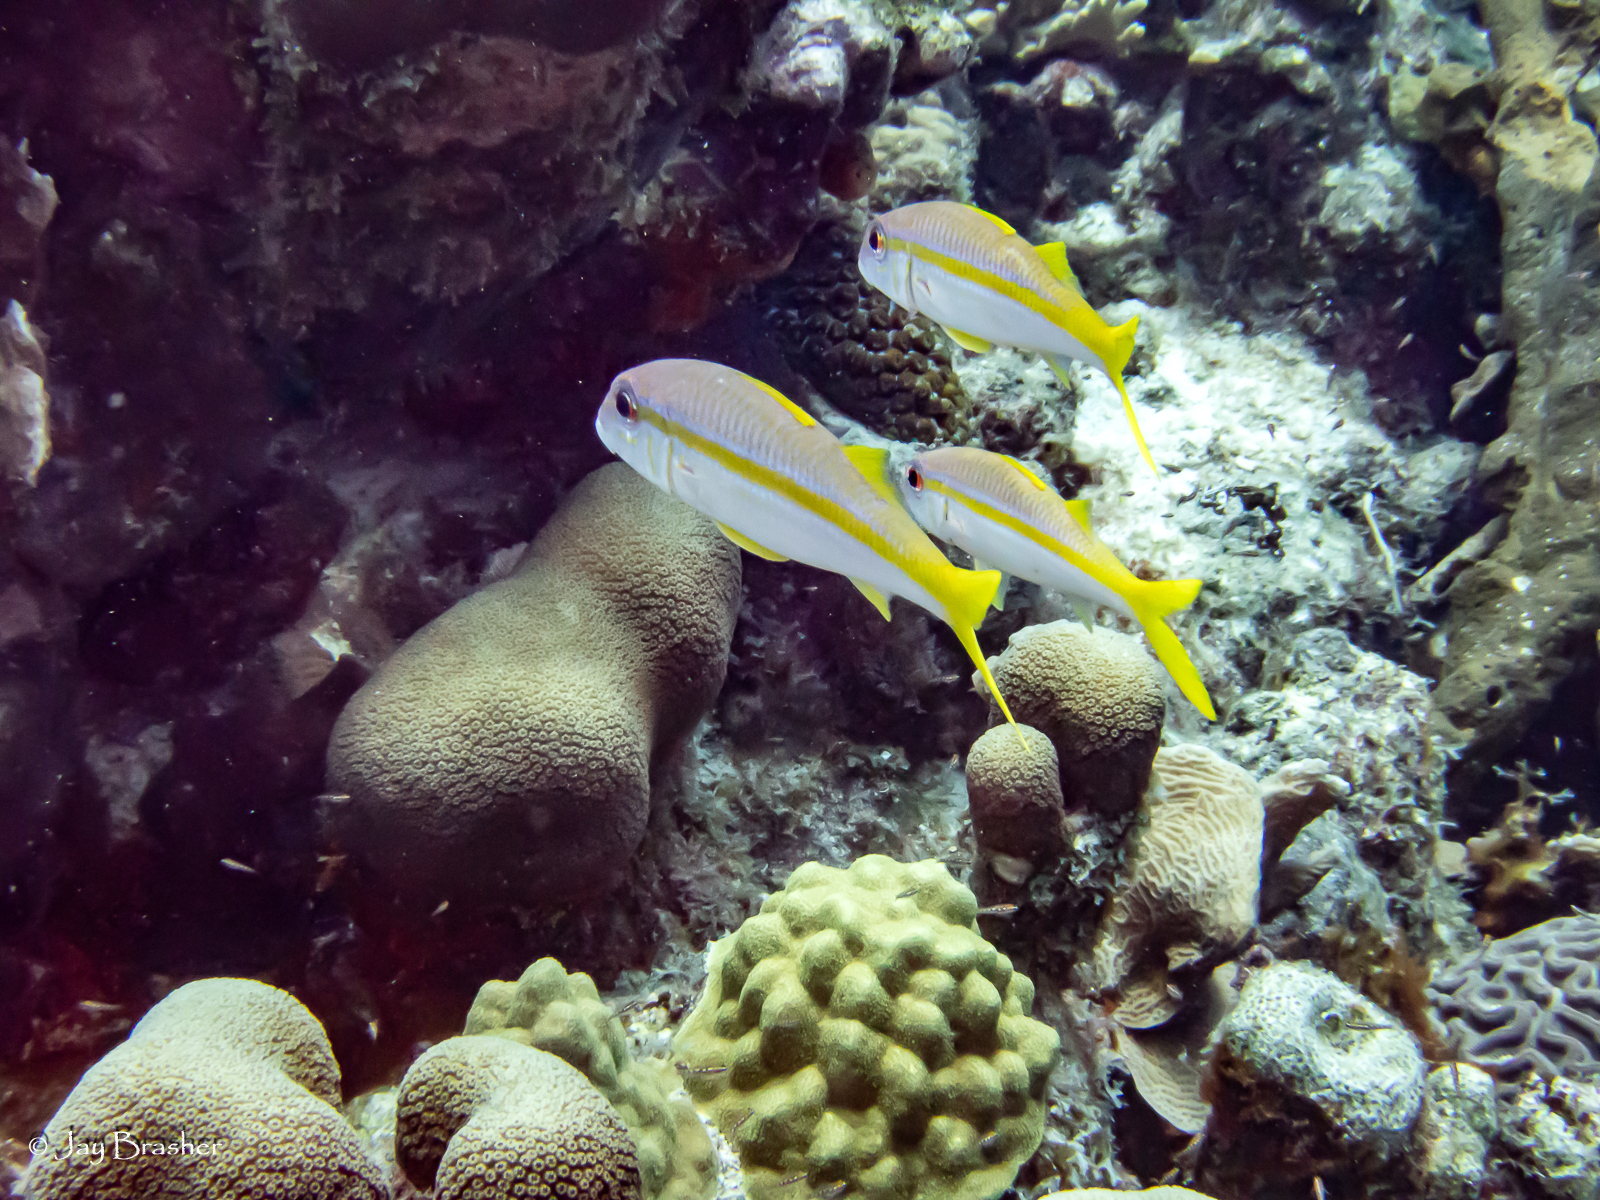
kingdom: Animalia
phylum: Chordata
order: Perciformes
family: Mullidae
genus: Mulloidichthys
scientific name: Mulloidichthys martinicus
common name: Yellow goatfish
